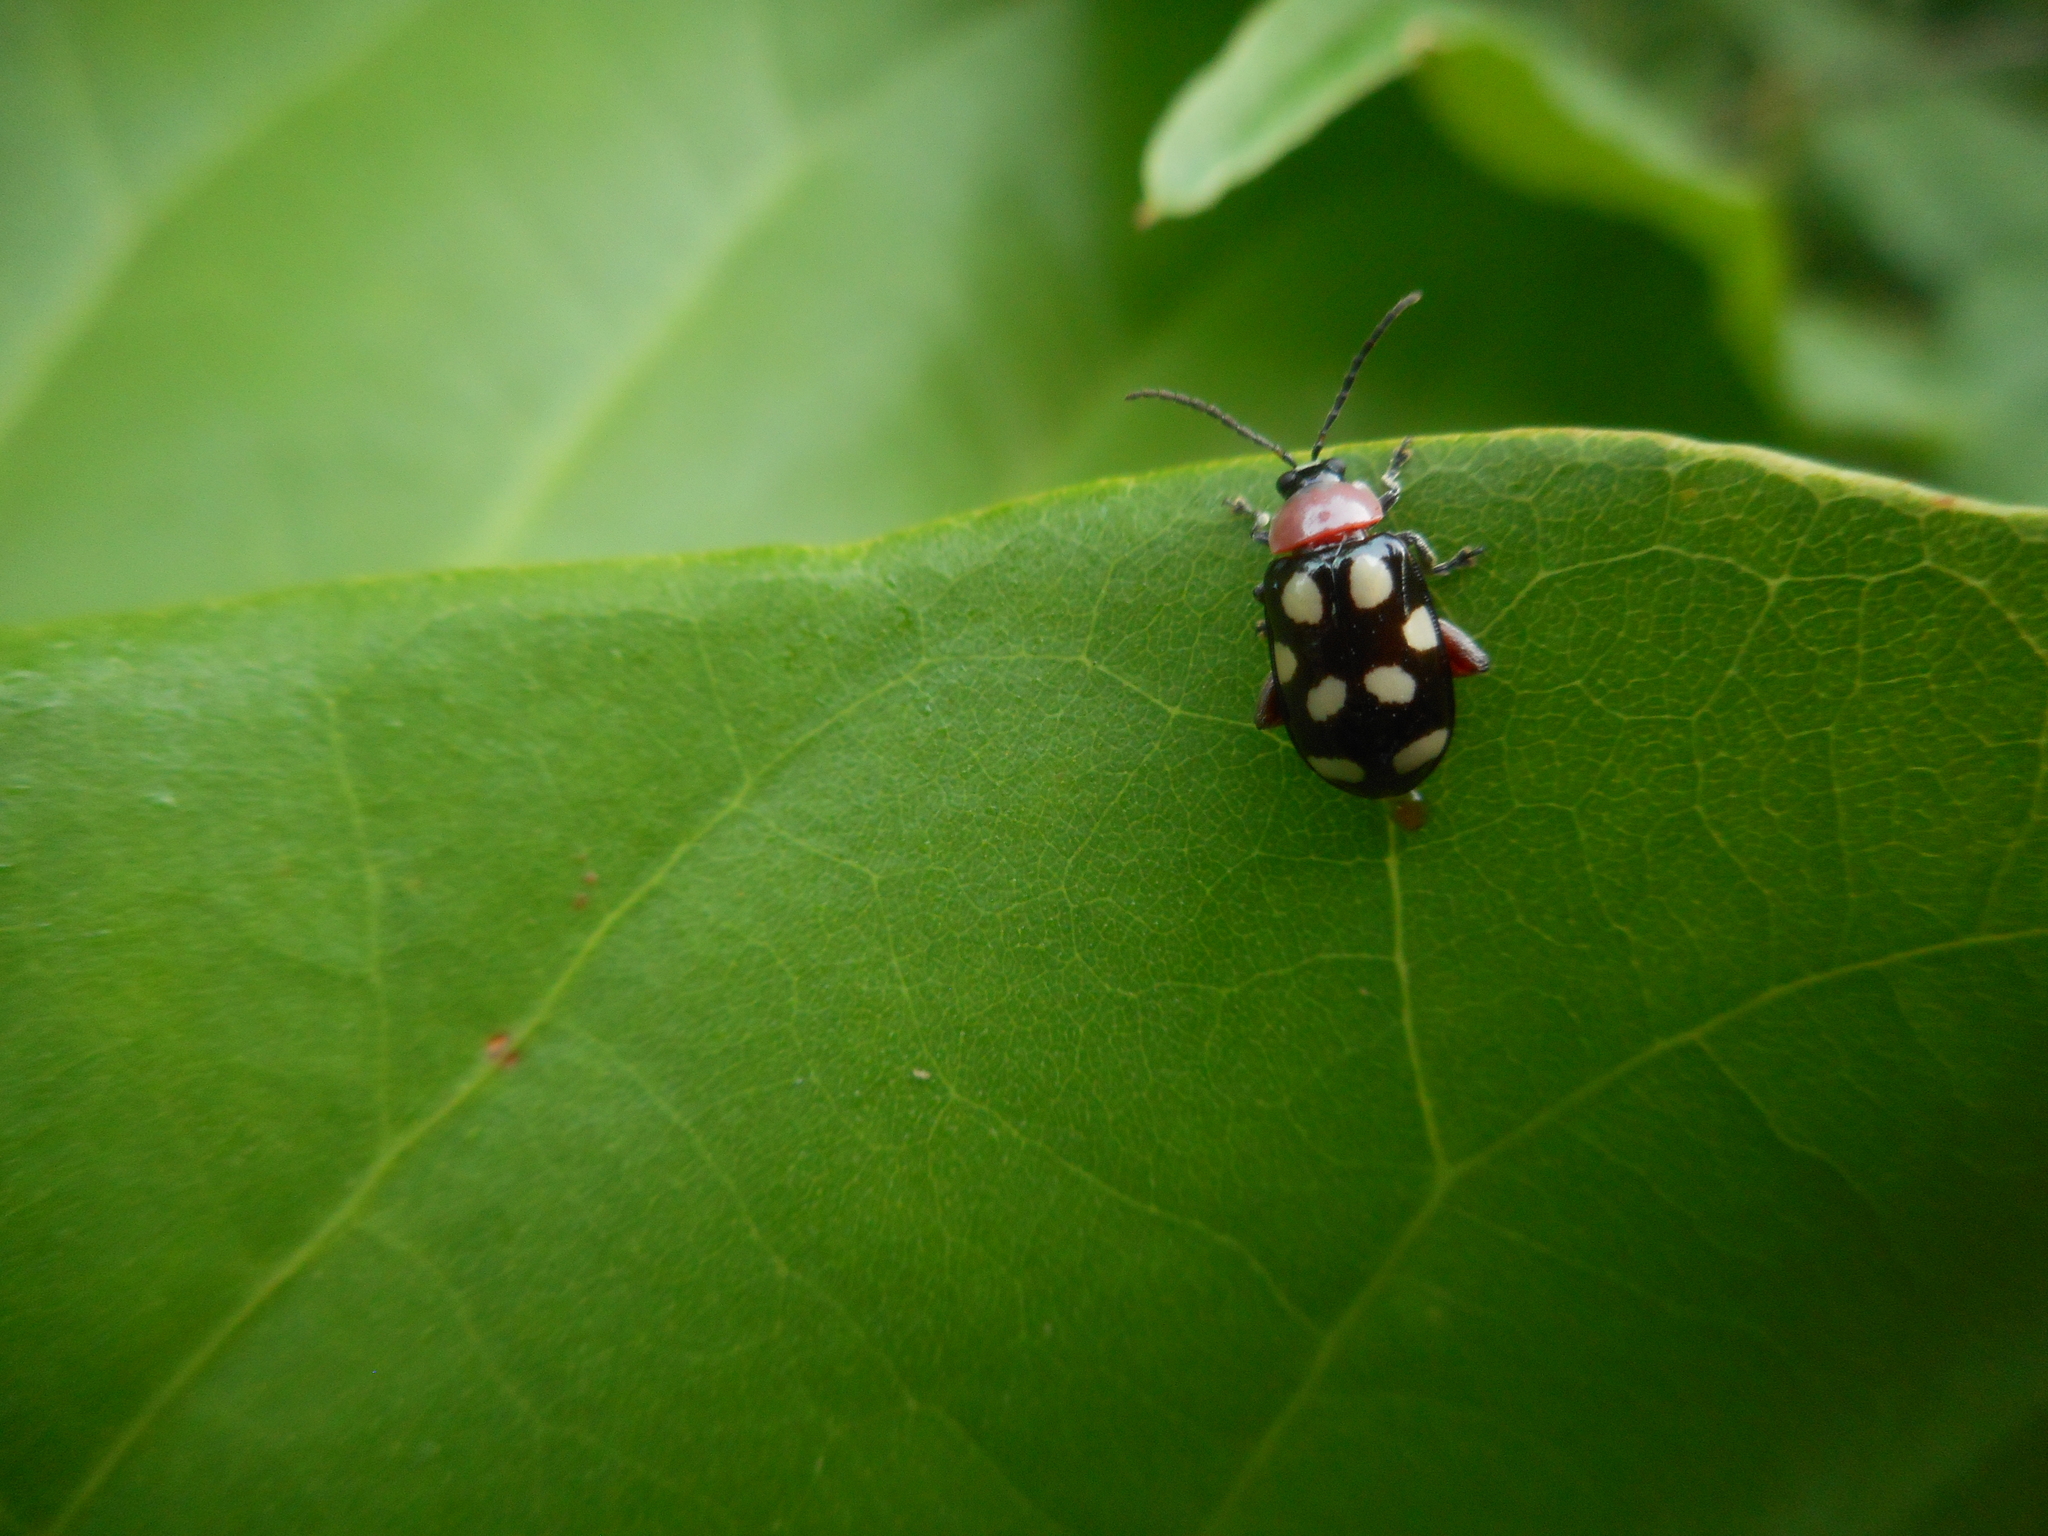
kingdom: Animalia
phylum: Arthropoda
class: Insecta
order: Coleoptera
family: Chrysomelidae
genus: Omophoita
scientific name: Omophoita cyanipennis
